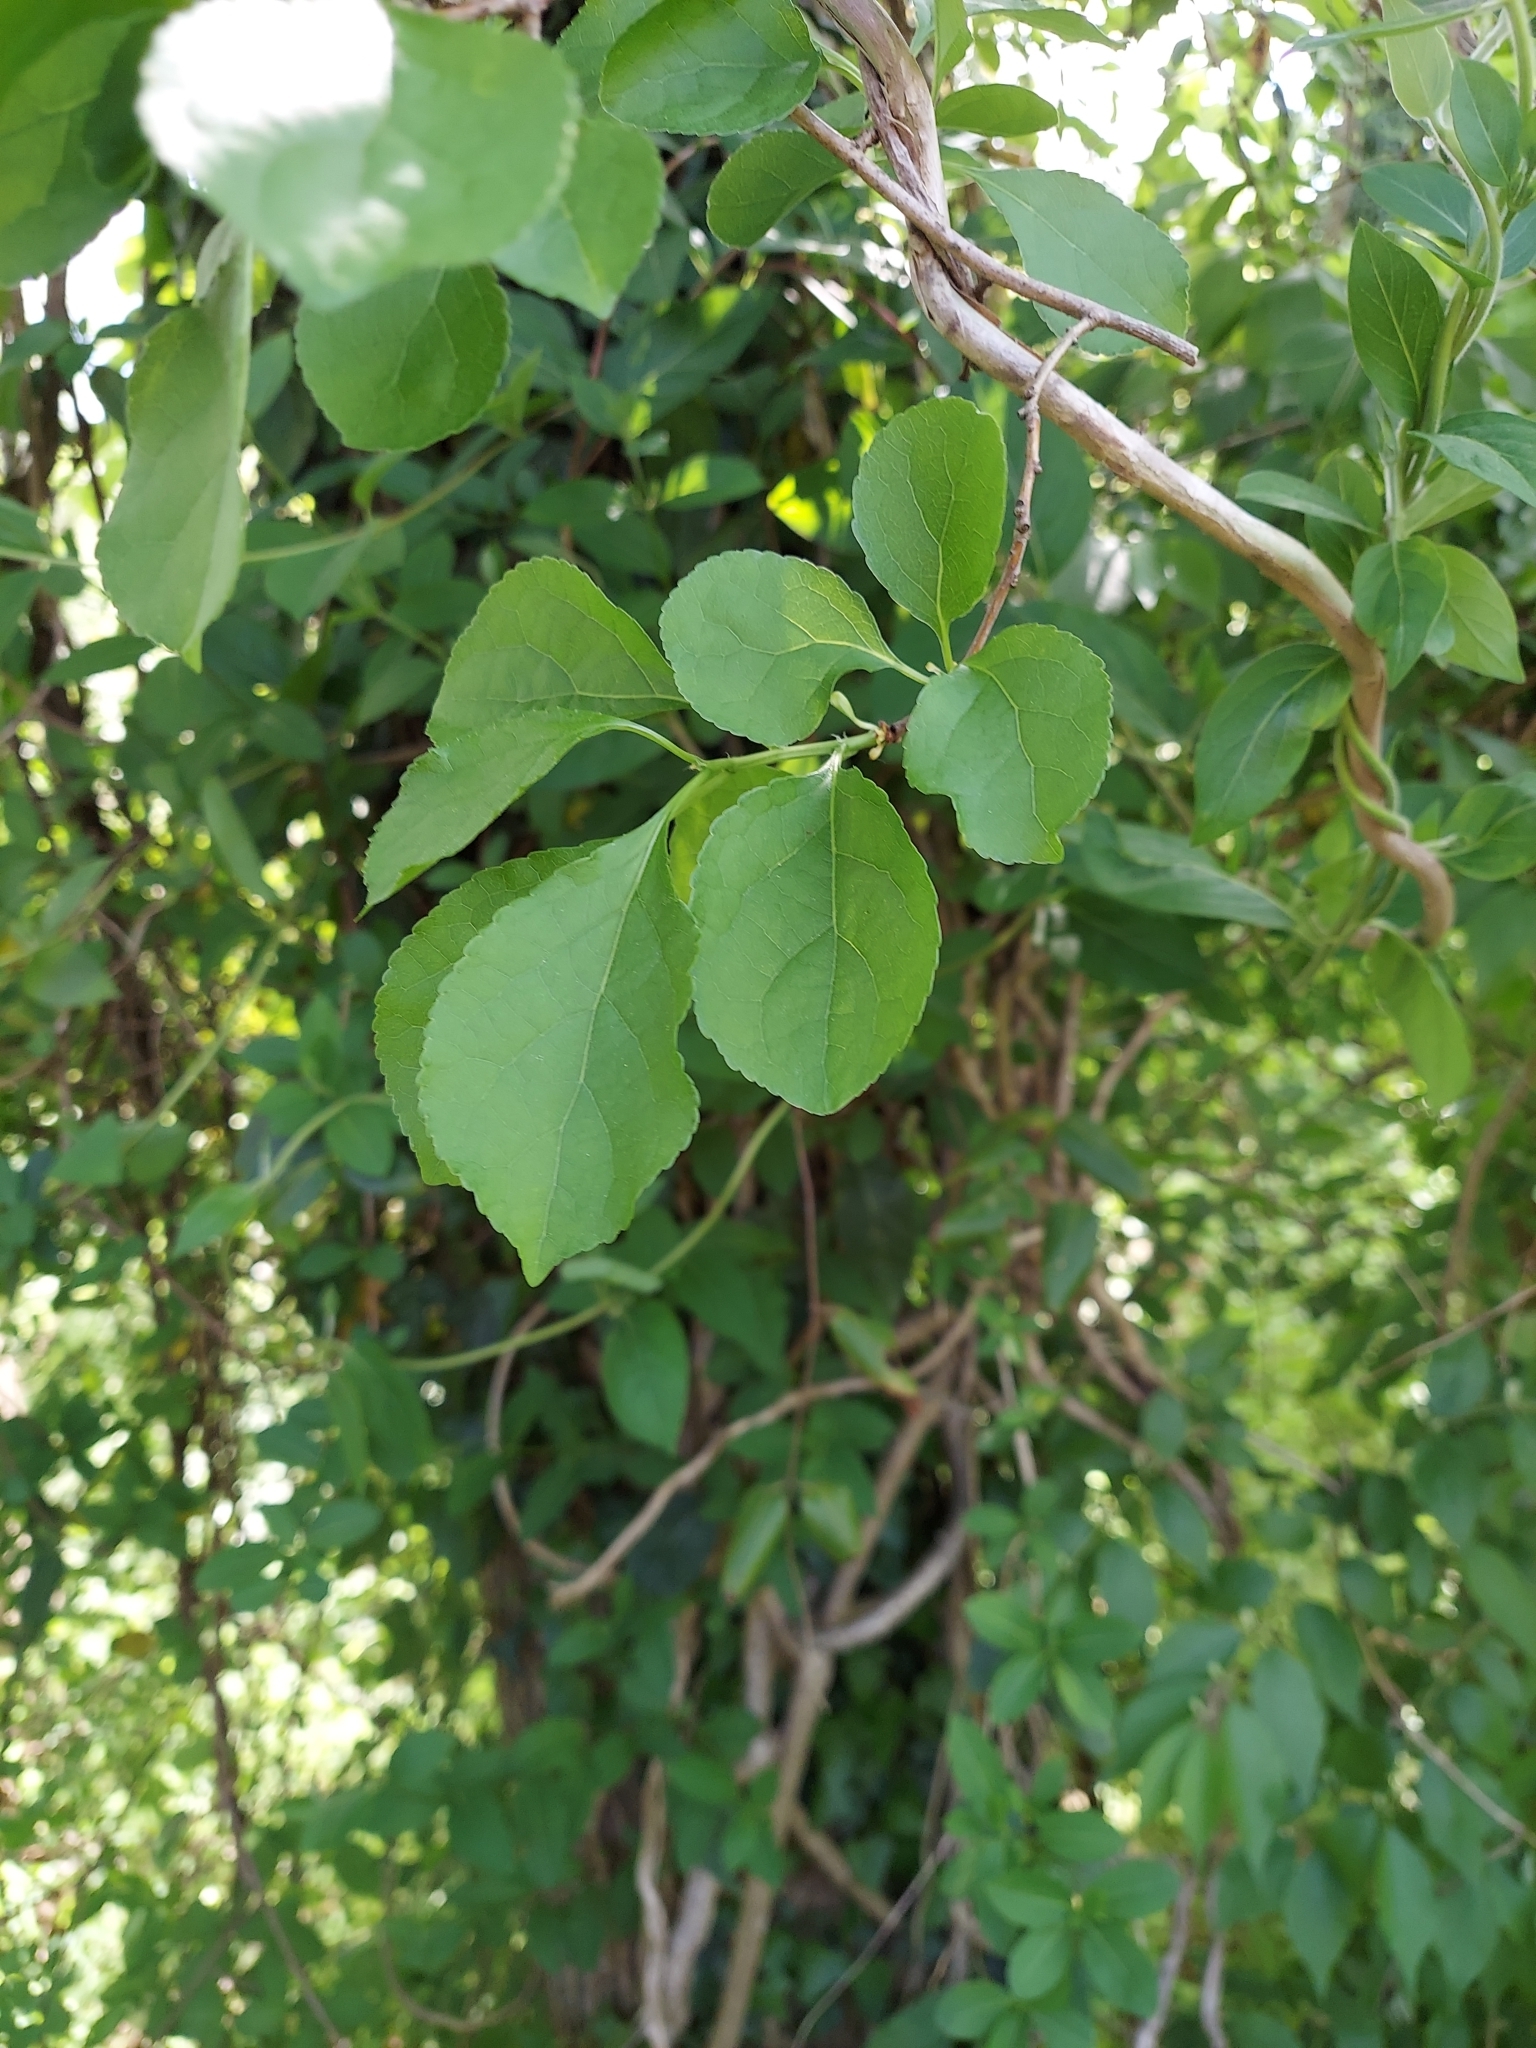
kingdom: Plantae
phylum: Tracheophyta
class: Magnoliopsida
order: Celastrales
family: Celastraceae
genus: Celastrus
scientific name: Celastrus orbiculatus
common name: Oriental bittersweet
